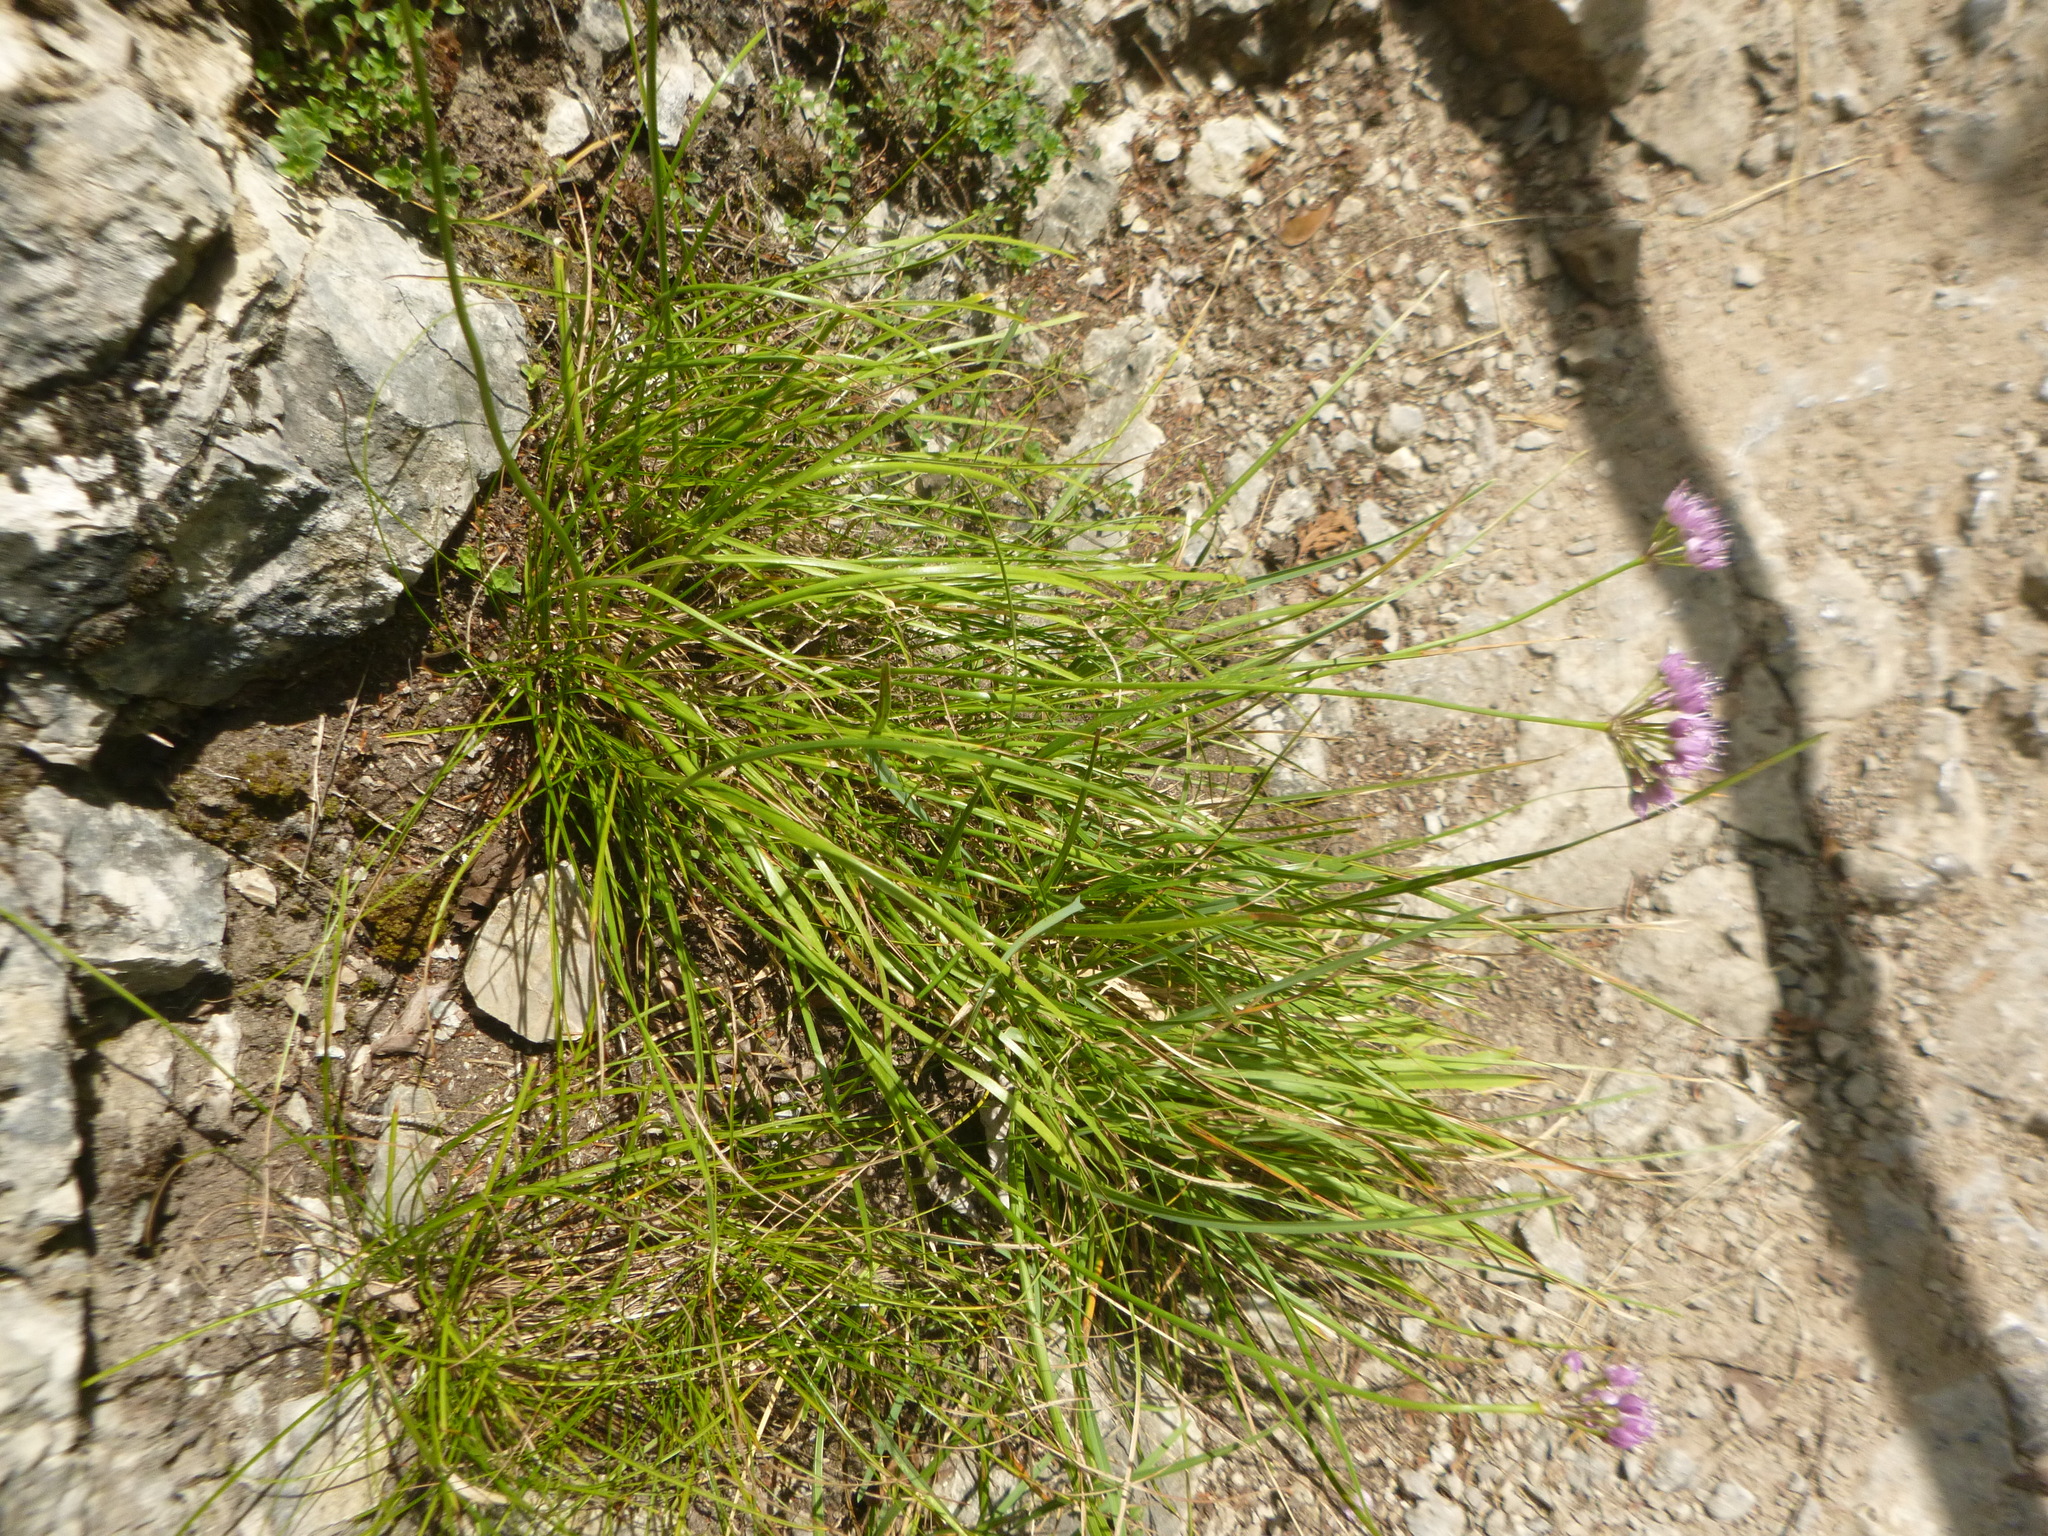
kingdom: Plantae
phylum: Tracheophyta
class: Liliopsida
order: Asparagales
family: Amaryllidaceae
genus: Allium
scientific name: Allium lusitanicum
